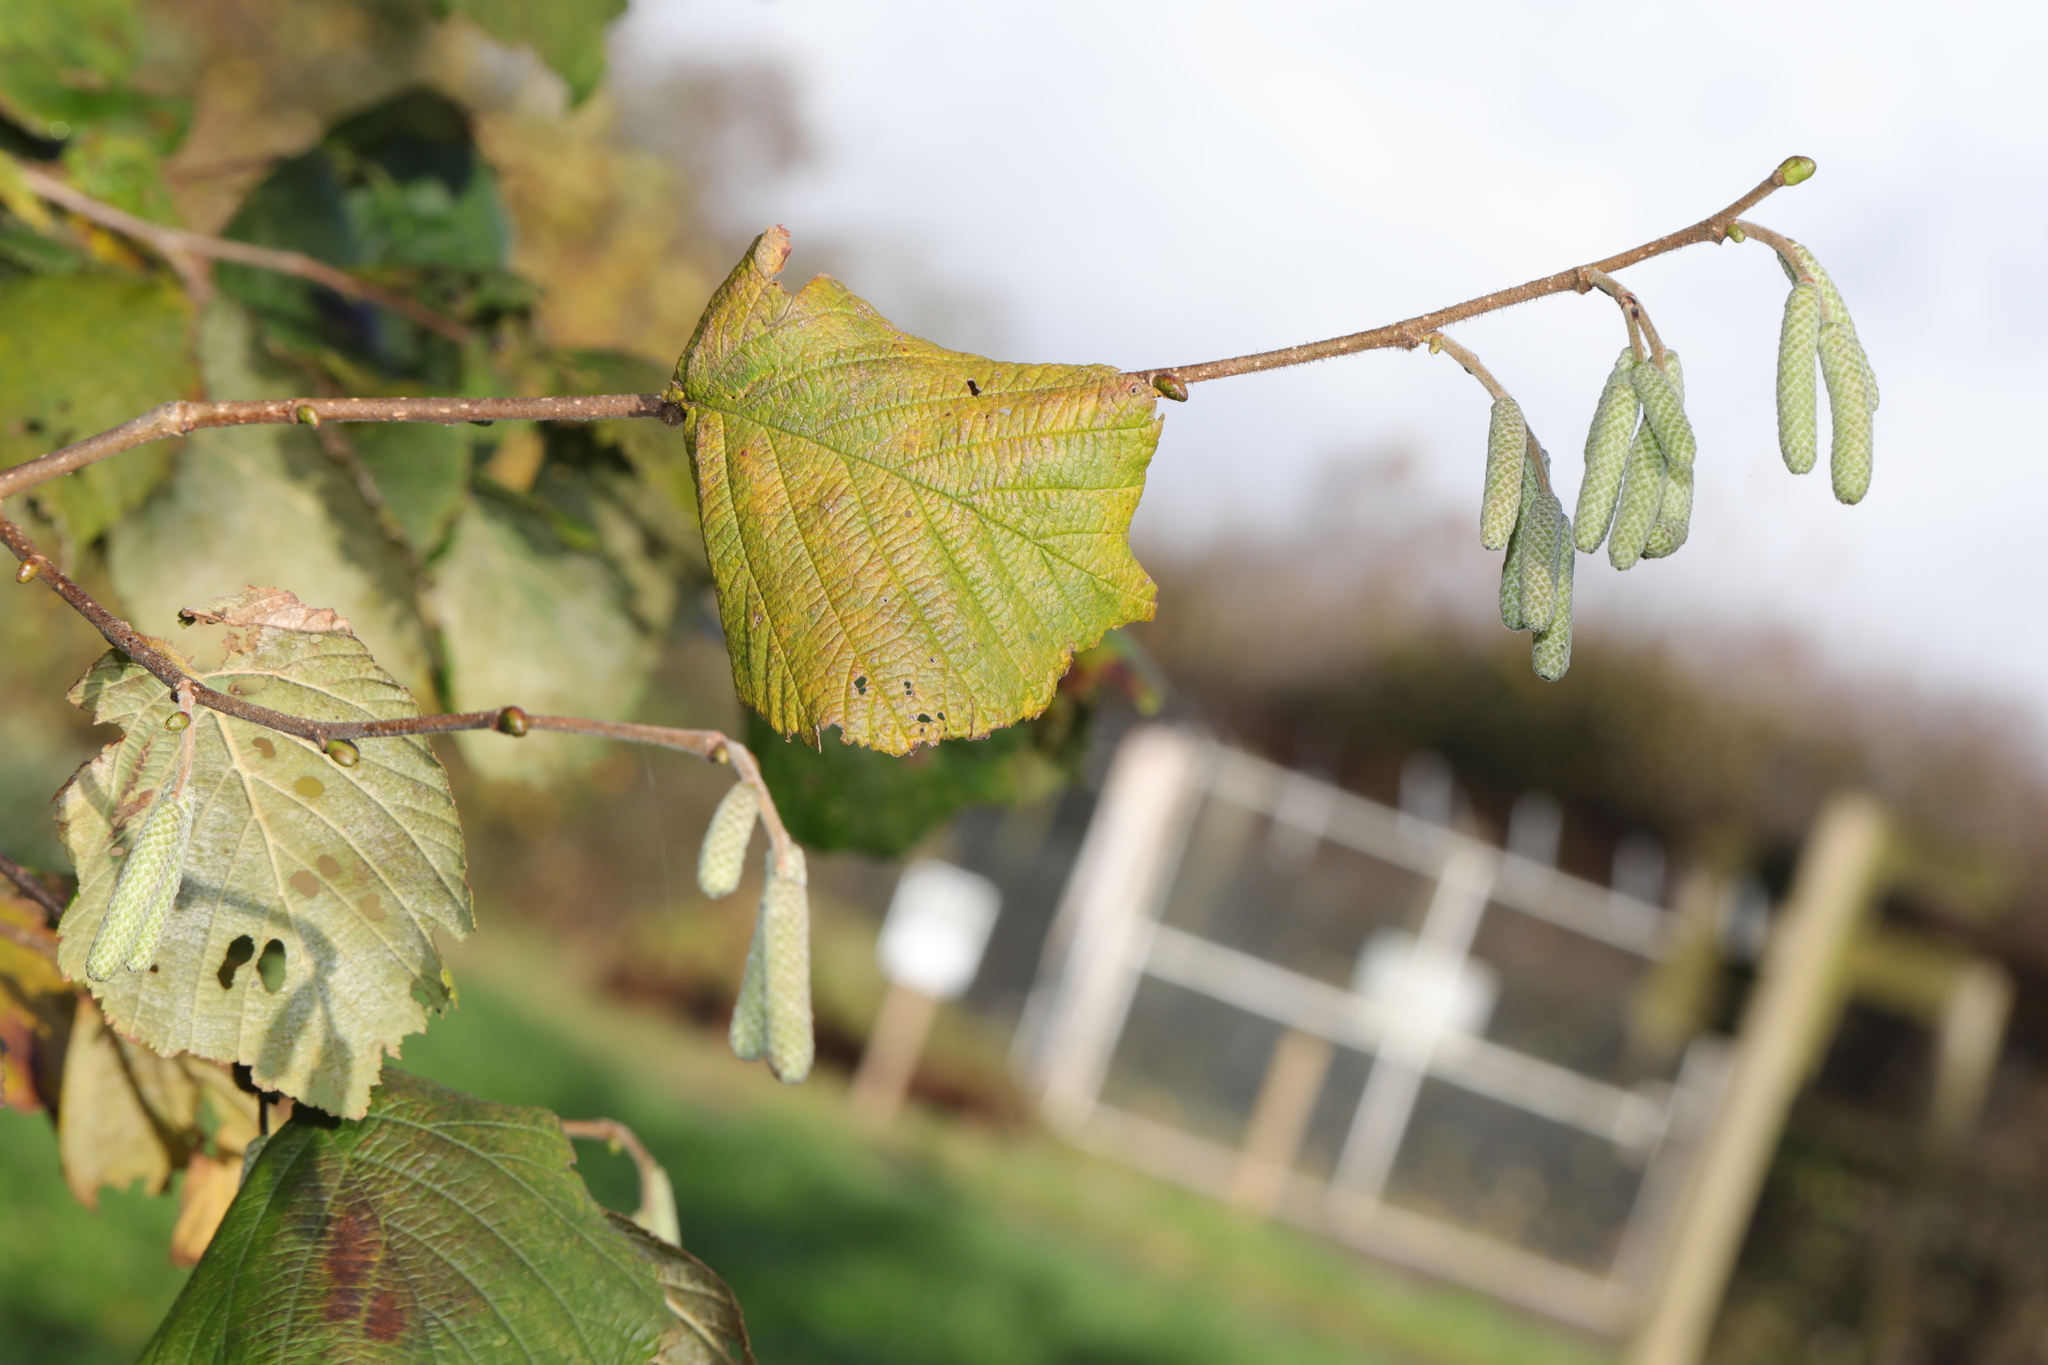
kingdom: Plantae
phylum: Tracheophyta
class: Magnoliopsida
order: Fagales
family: Betulaceae
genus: Corylus
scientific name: Corylus avellana
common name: European hazel
